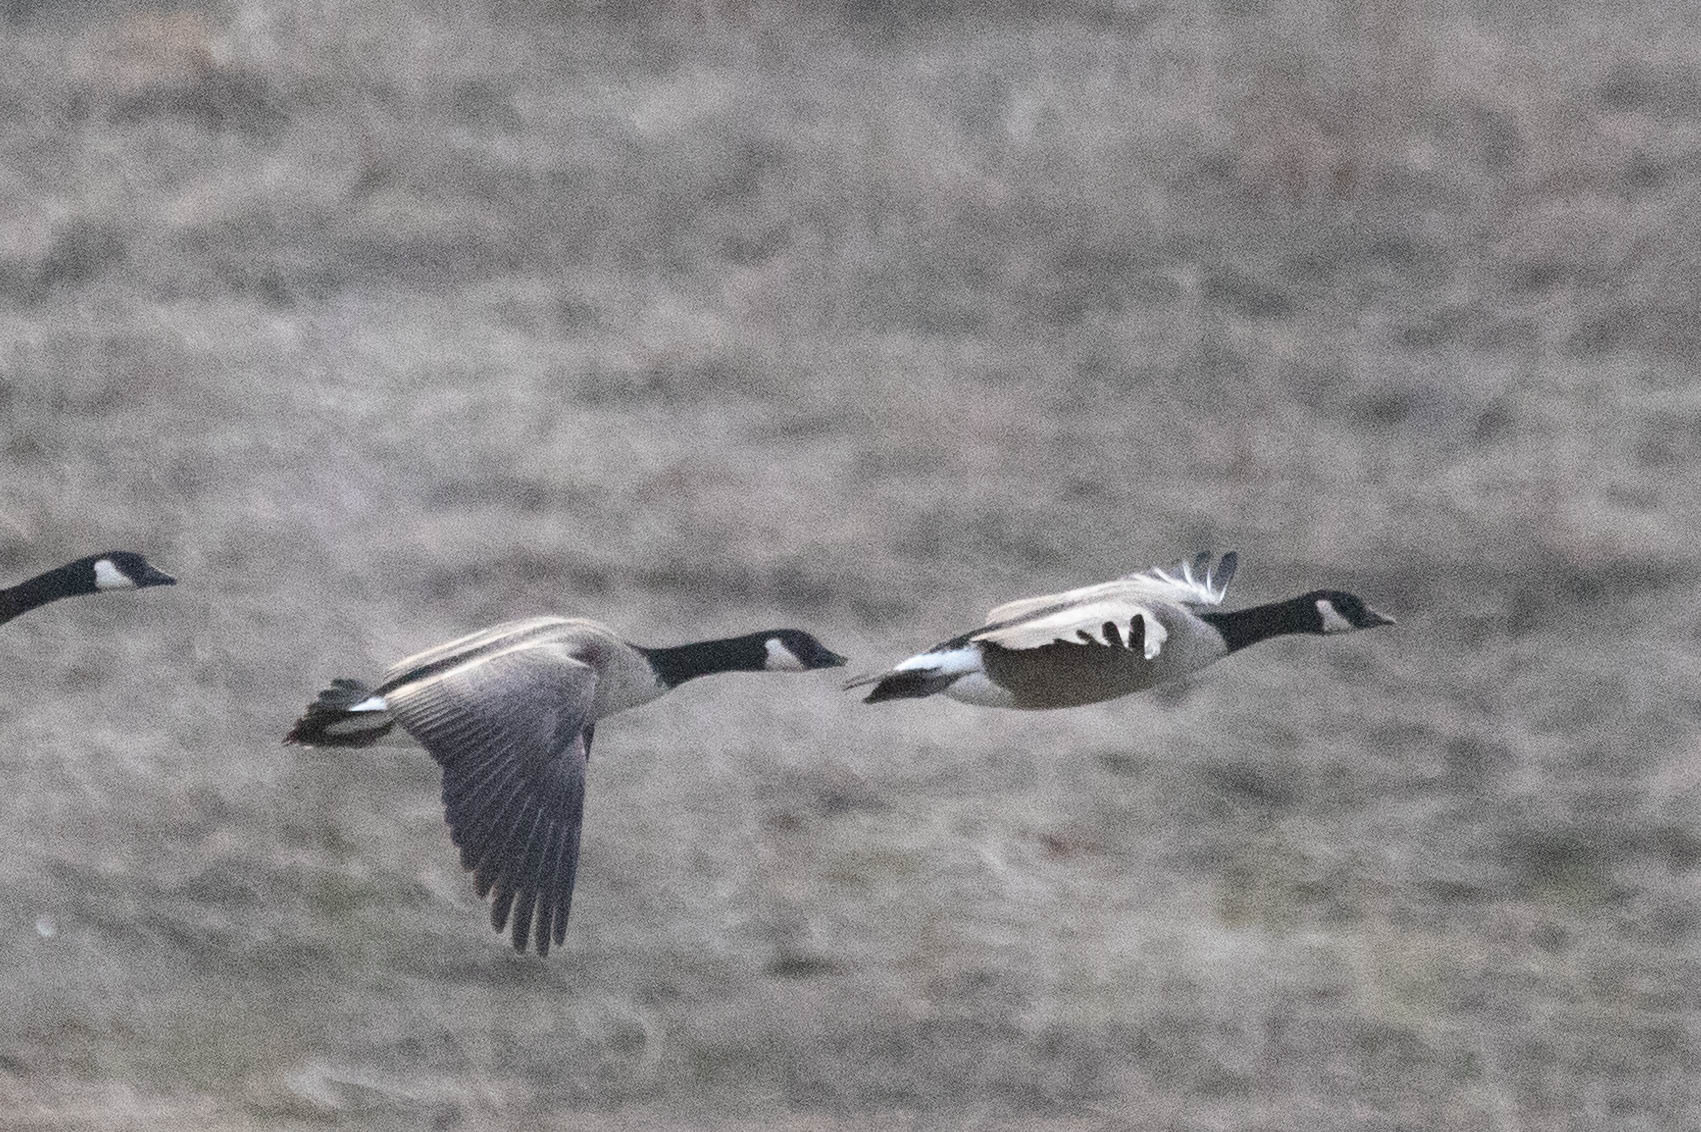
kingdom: Animalia
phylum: Chordata
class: Aves
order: Anseriformes
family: Anatidae
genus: Branta
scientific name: Branta hutchinsii
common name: Cackling goose
